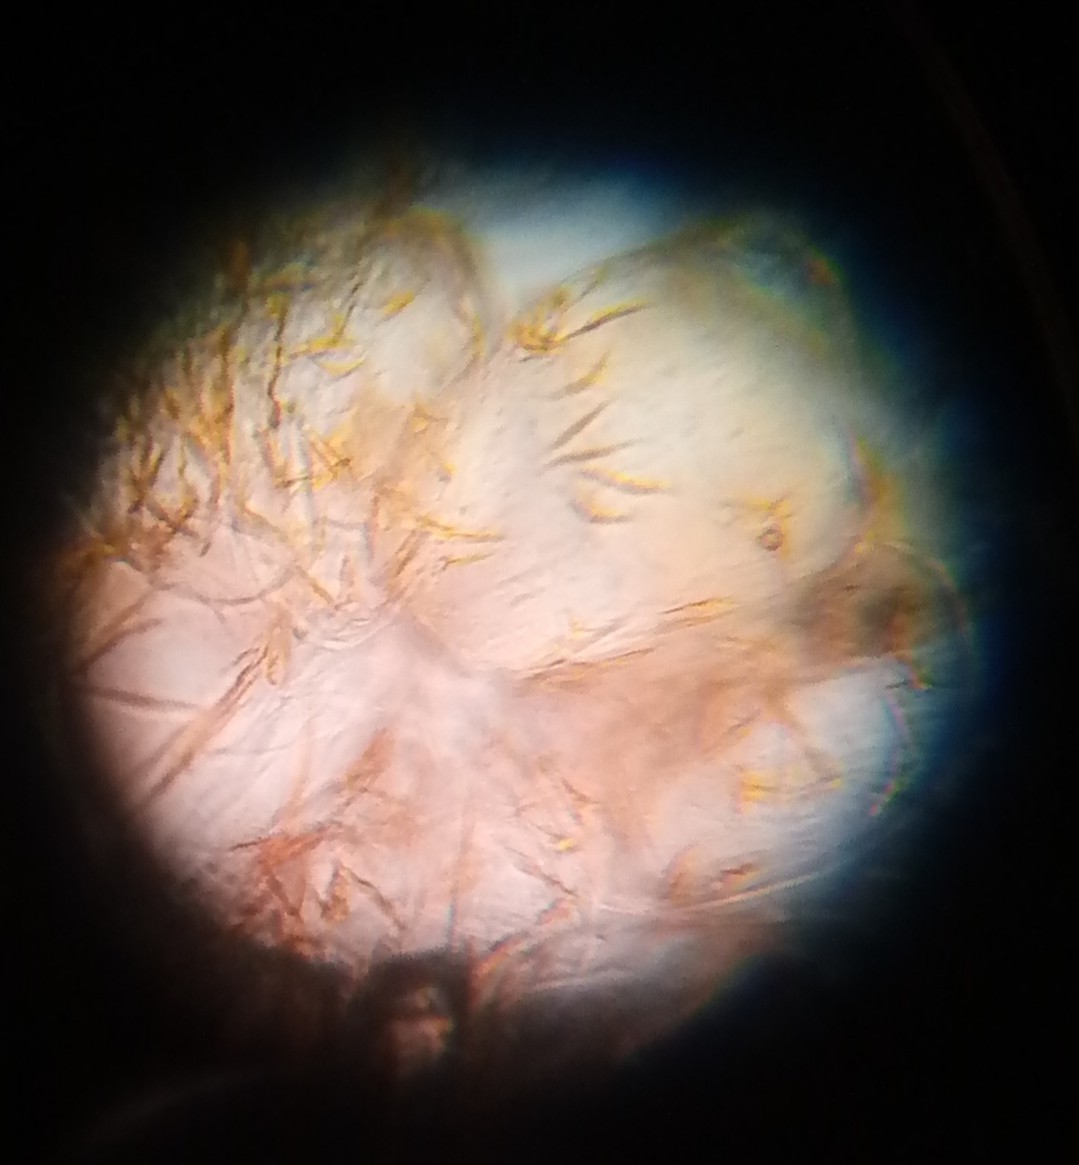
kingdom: Plantae
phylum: Tracheophyta
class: Magnoliopsida
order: Rosales
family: Rosaceae
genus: Sorbus
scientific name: Sorbus aucuparia
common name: Rowan
